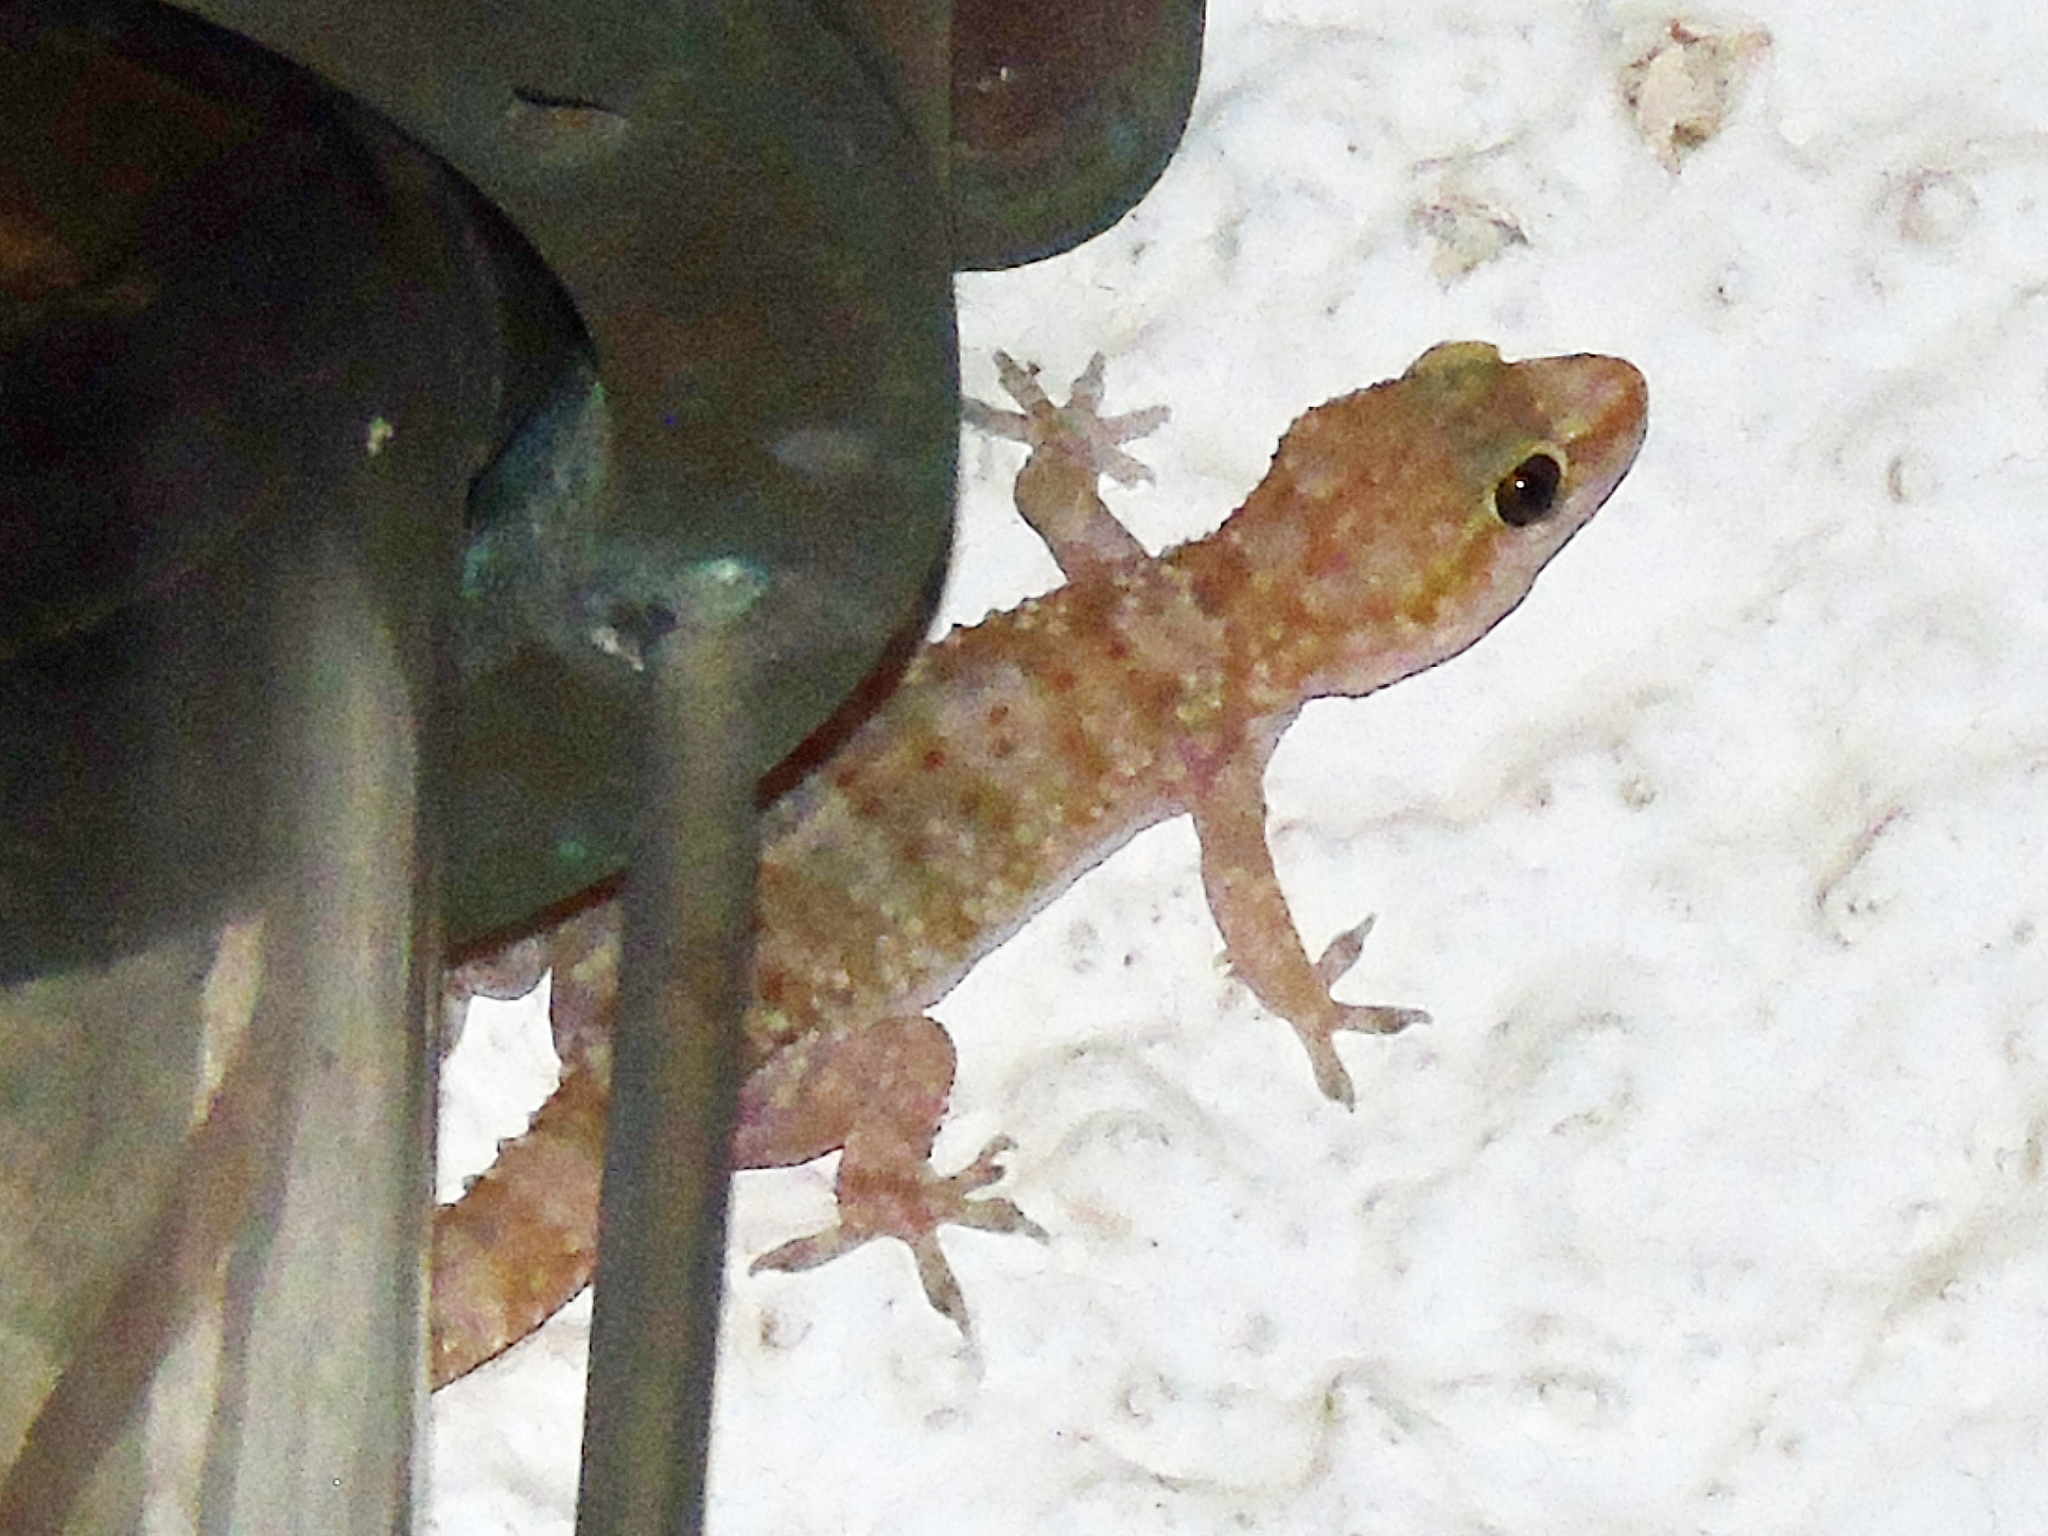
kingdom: Animalia
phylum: Chordata
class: Squamata
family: Gekkonidae
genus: Hemidactylus
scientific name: Hemidactylus turcicus
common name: Turkish gecko
